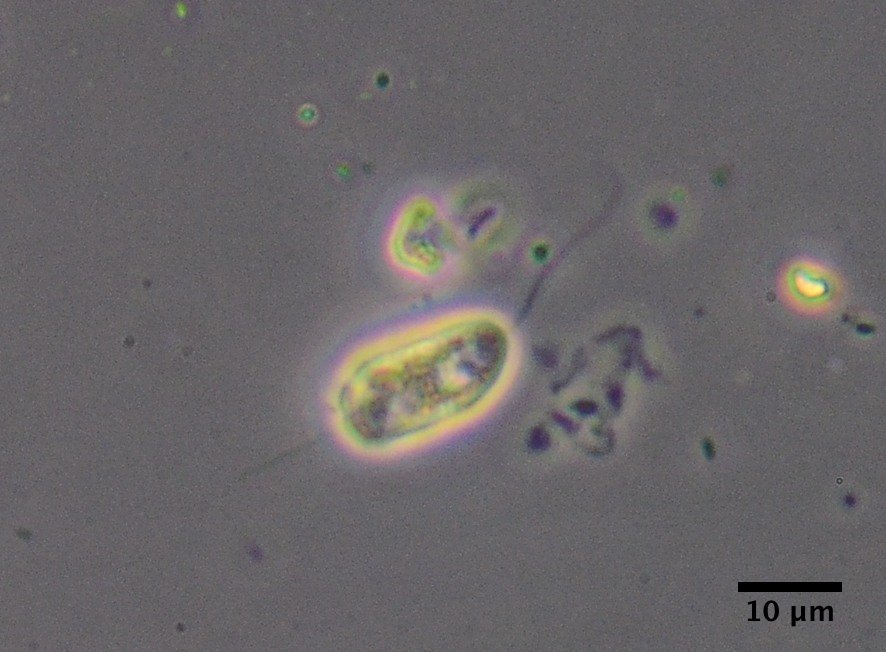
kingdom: Protozoa
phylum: Euglenozoa
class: Peranemea
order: Anisonemida
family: Anisonemidae
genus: Anisonema
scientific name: Anisonema
